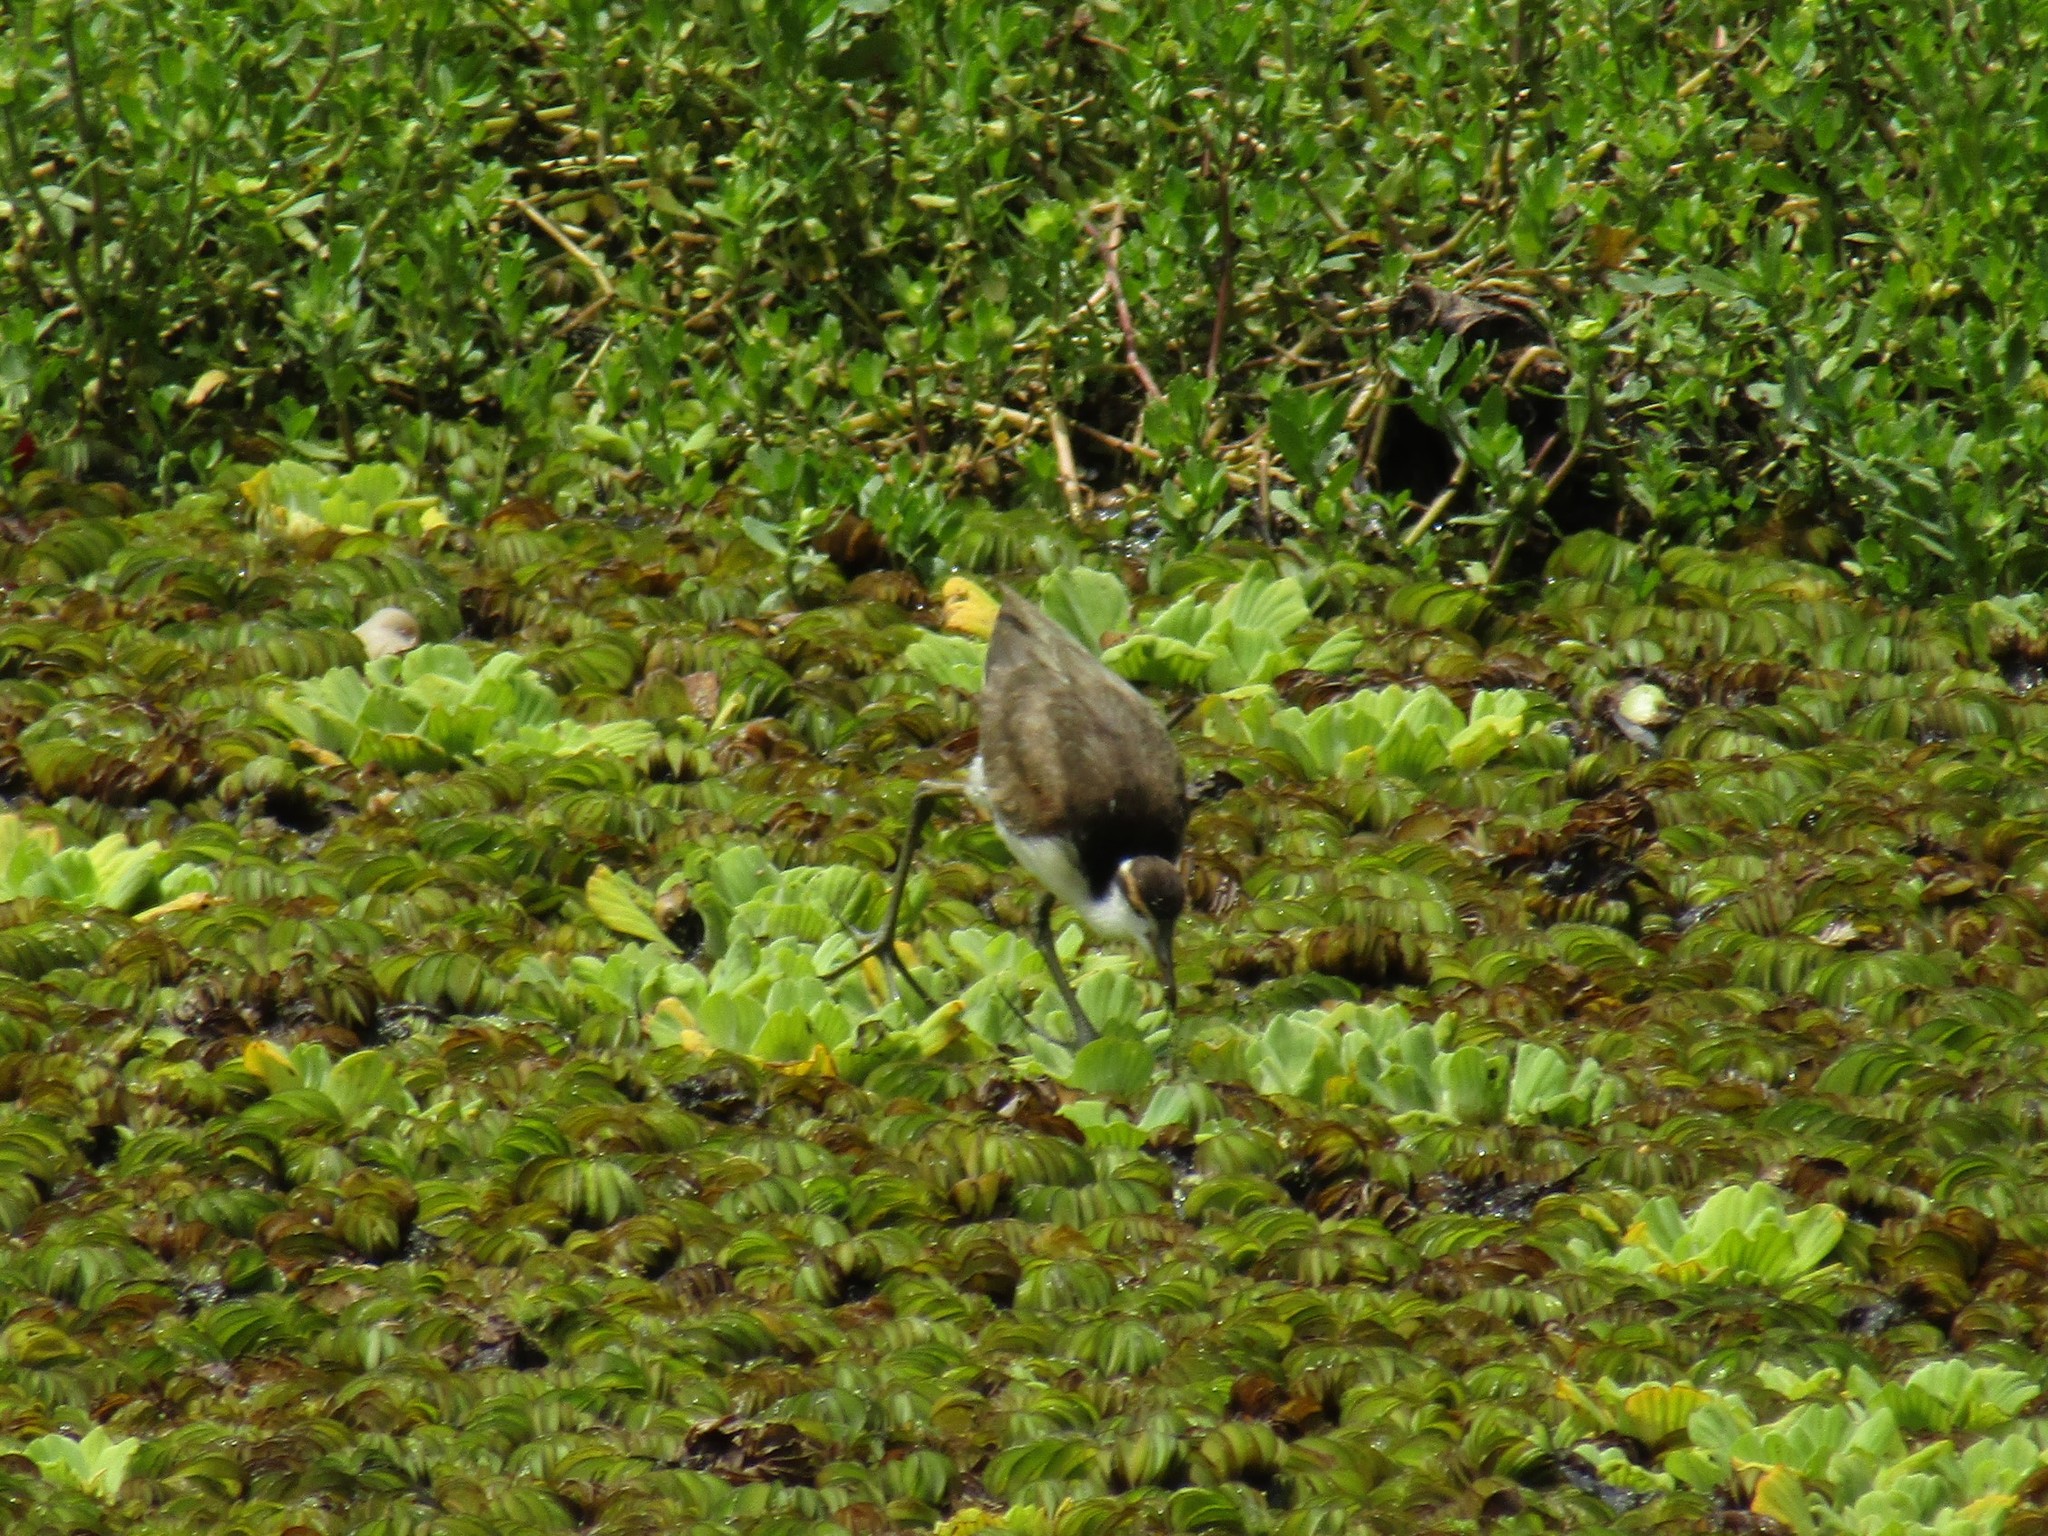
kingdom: Animalia
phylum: Chordata
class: Aves
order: Charadriiformes
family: Jacanidae
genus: Jacana
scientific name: Jacana jacana
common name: Wattled jacana
